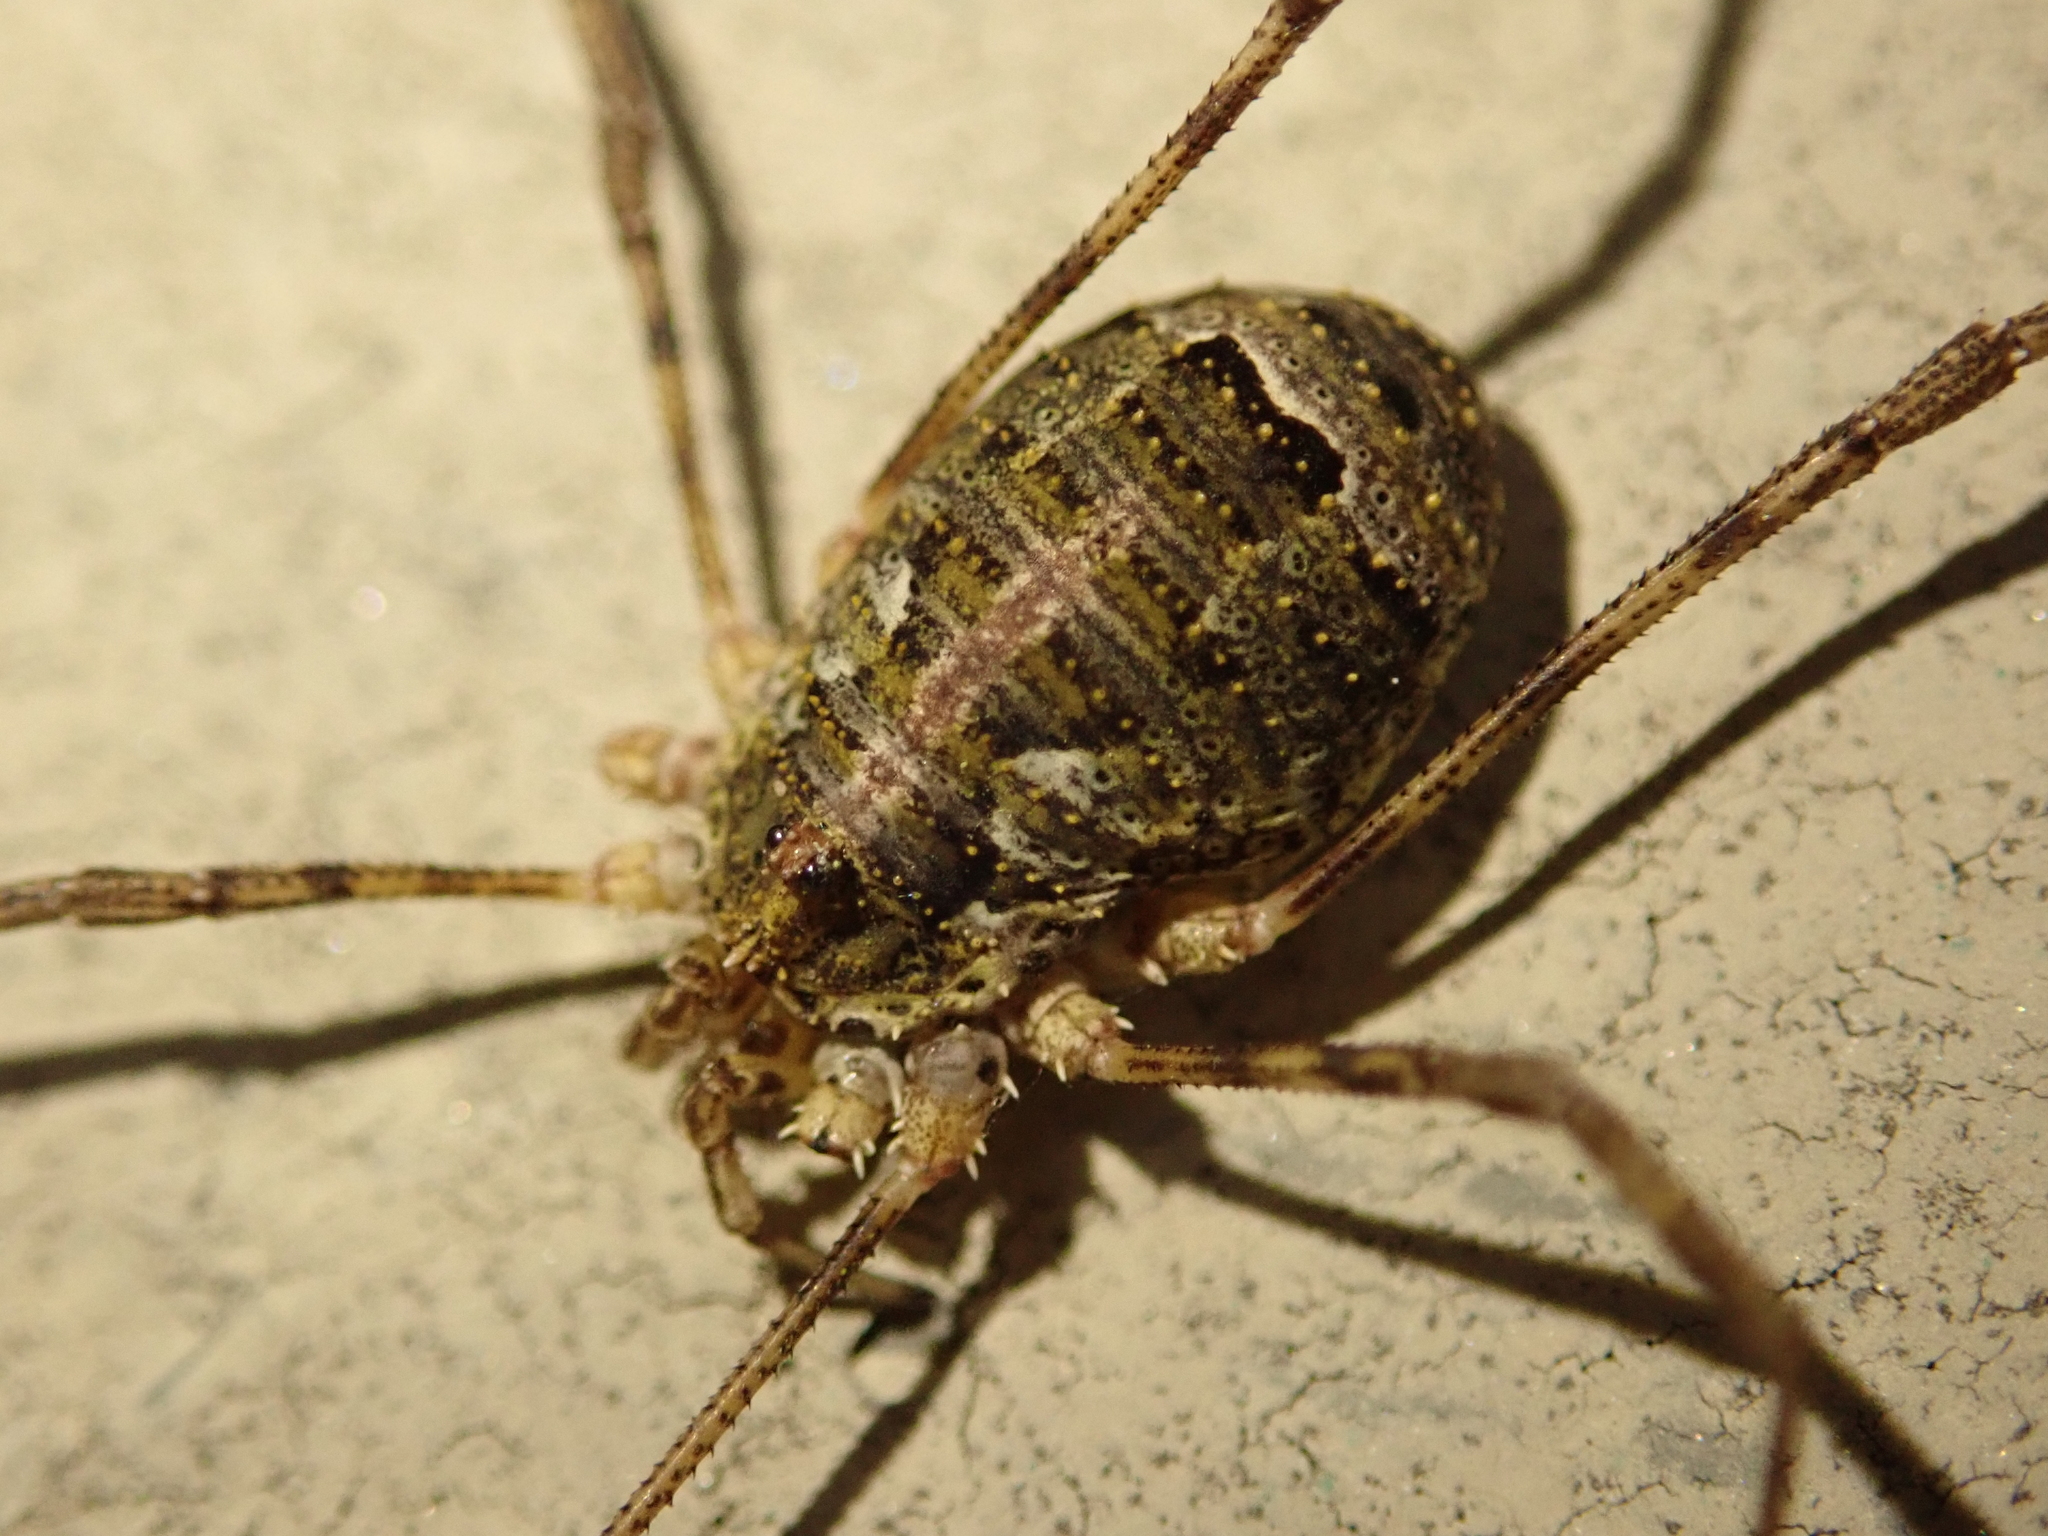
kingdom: Animalia
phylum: Arthropoda
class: Arachnida
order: Opiliones
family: Phalangiidae
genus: Lacinius
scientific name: Lacinius dentiger
